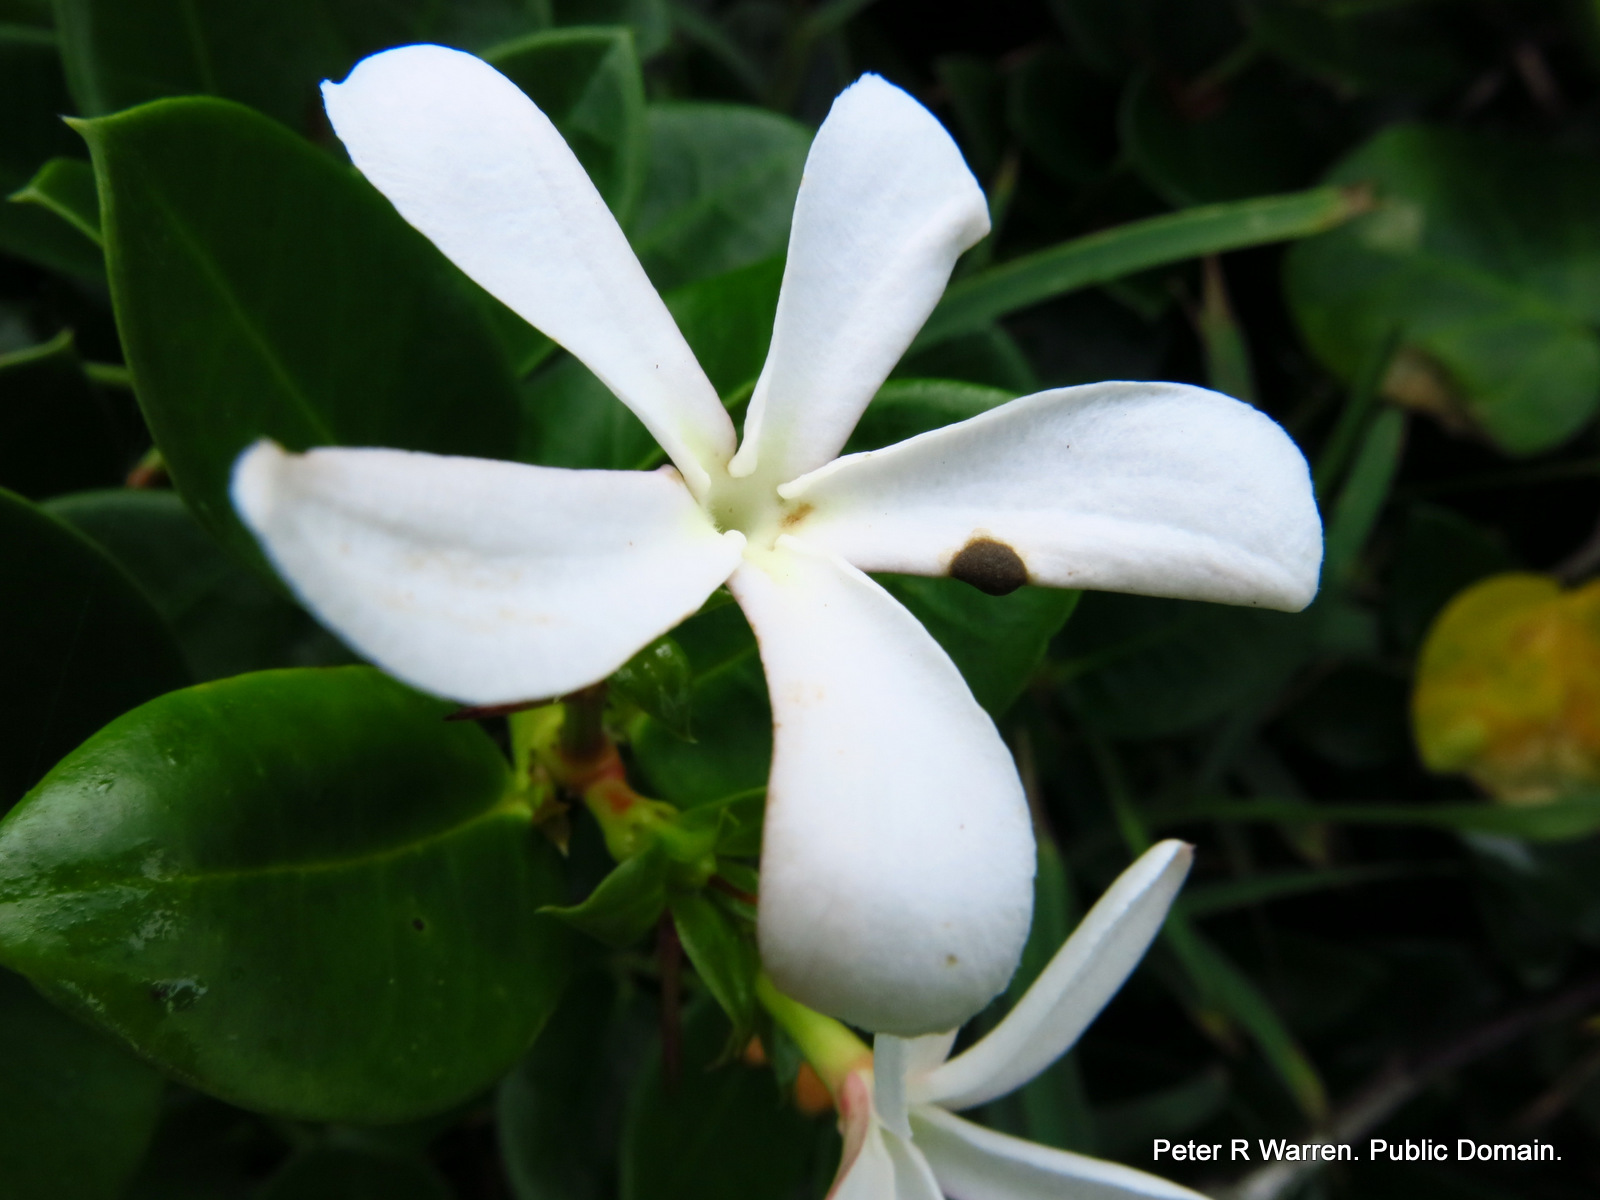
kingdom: Plantae
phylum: Tracheophyta
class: Magnoliopsida
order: Gentianales
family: Apocynaceae
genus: Carissa
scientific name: Carissa macrocarpa
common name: Natal plum
